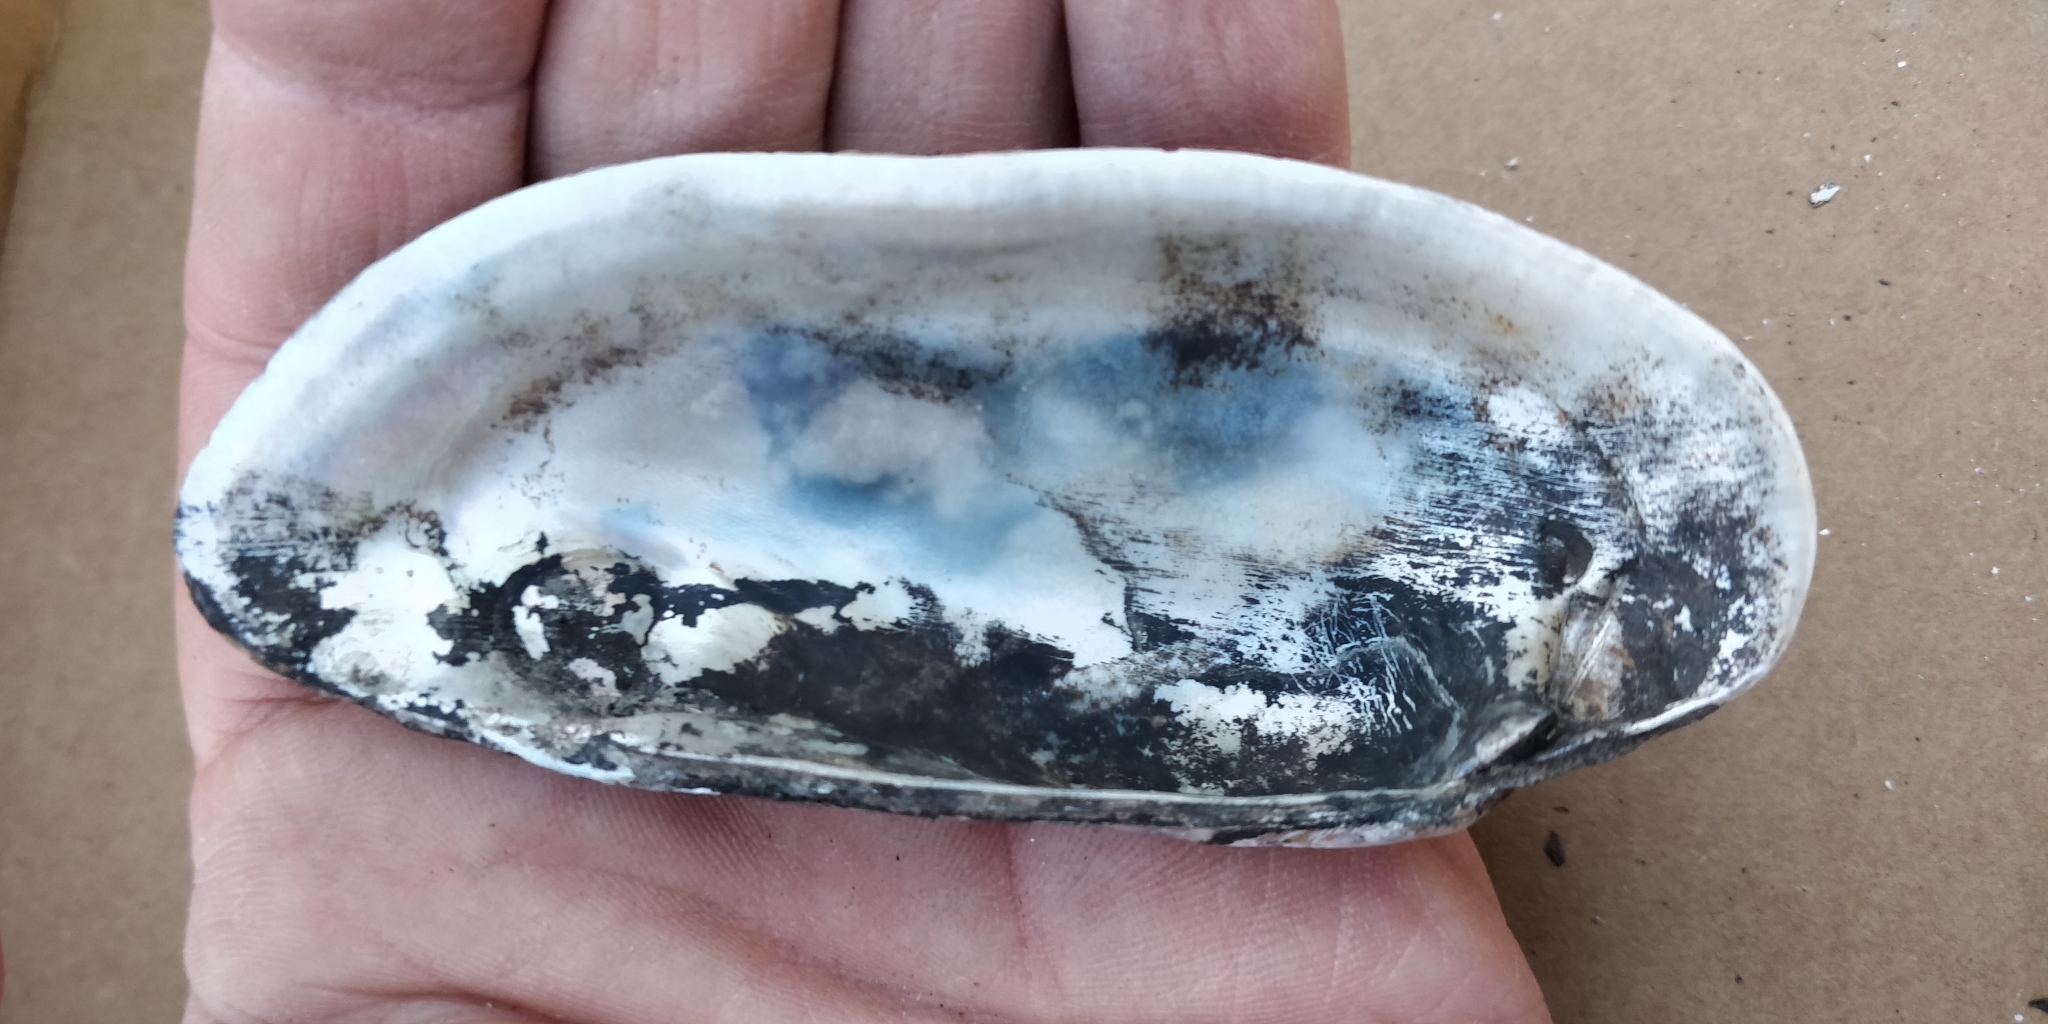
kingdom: Animalia
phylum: Mollusca
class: Bivalvia
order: Unionida
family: Unionidae
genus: Lampsilis
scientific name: Lampsilis teres
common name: Yellow sandshell
